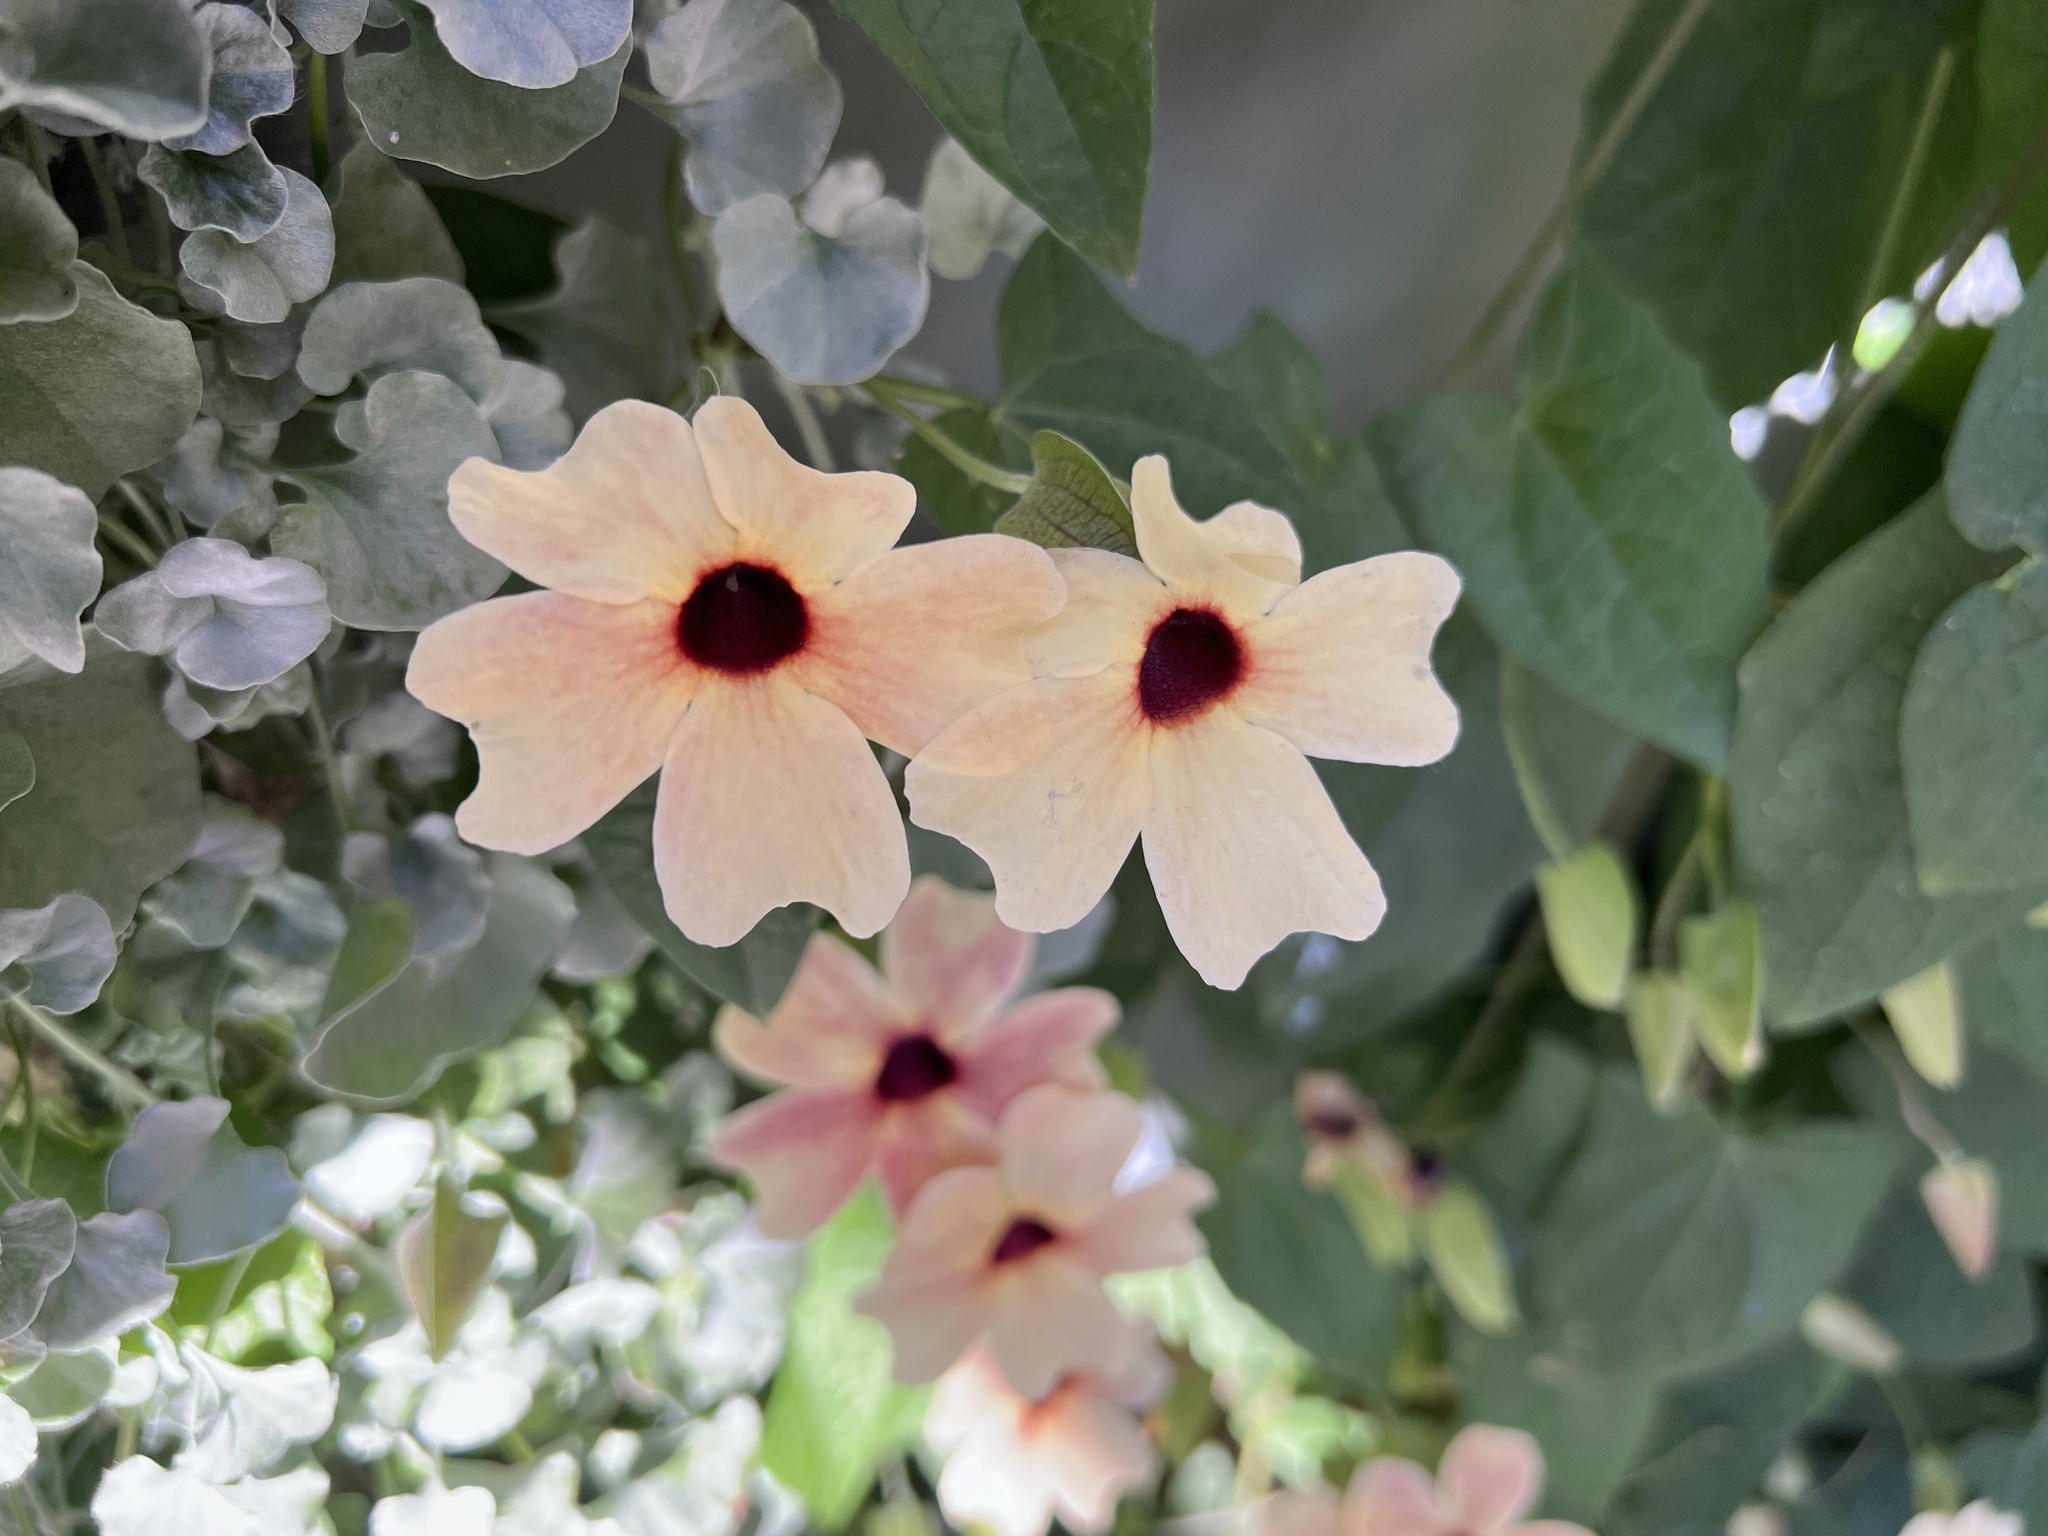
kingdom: Plantae
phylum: Tracheophyta
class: Magnoliopsida
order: Lamiales
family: Acanthaceae
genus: Thunbergia
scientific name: Thunbergia alata
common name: Blackeyed susan vine
